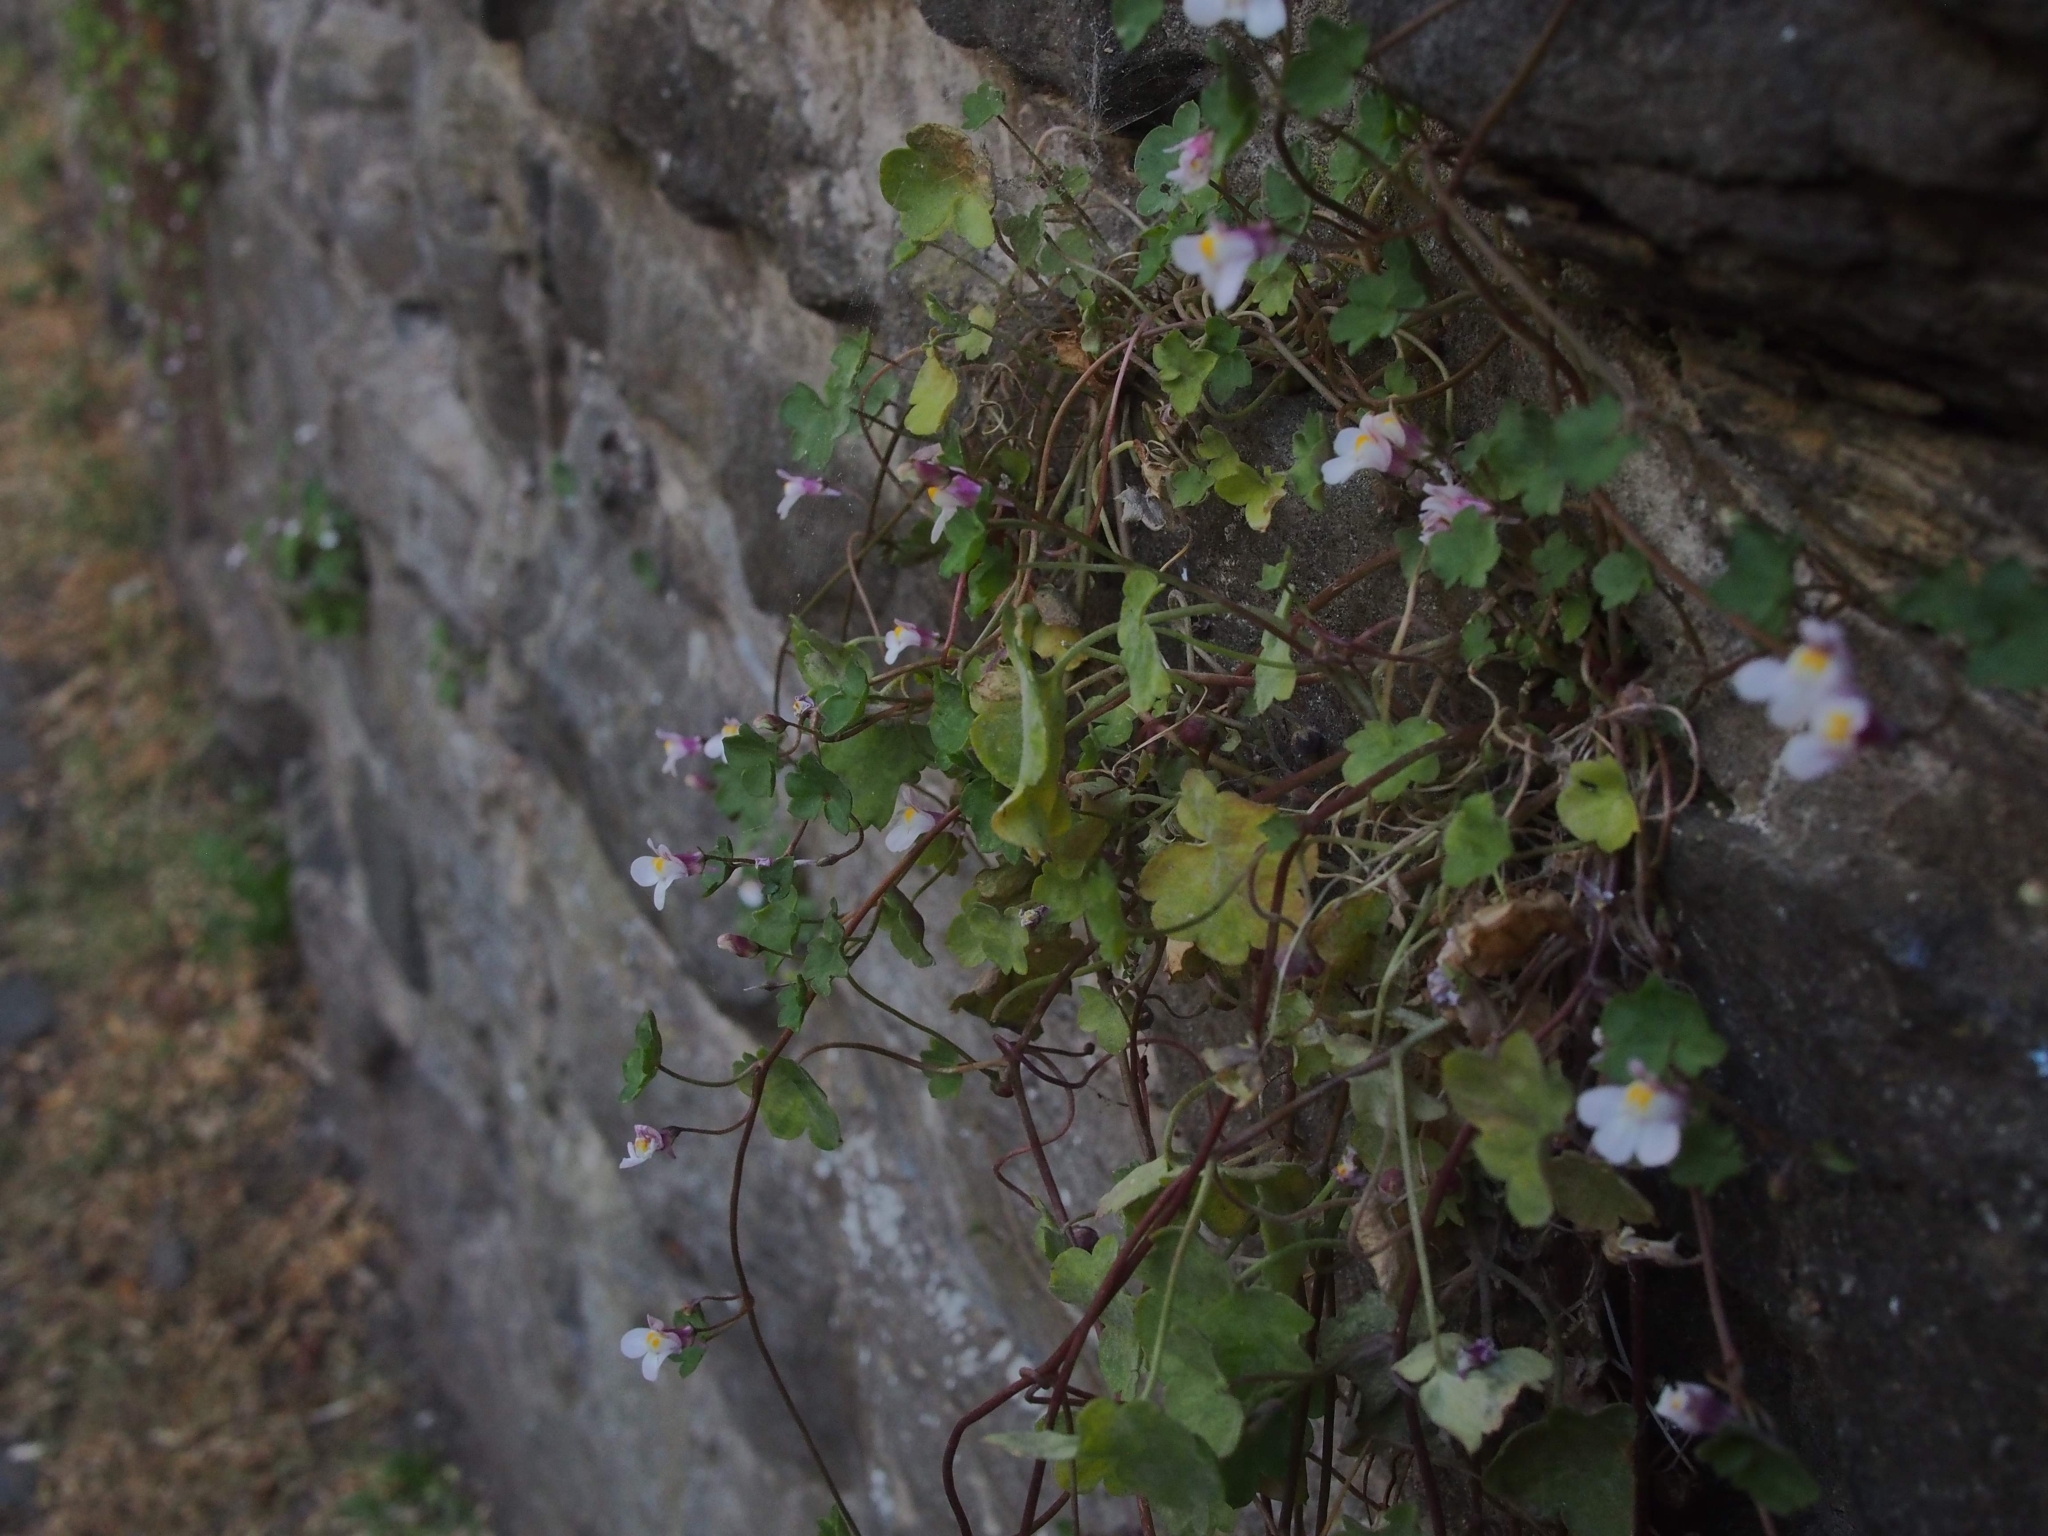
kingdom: Plantae
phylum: Tracheophyta
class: Magnoliopsida
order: Lamiales
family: Plantaginaceae
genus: Cymbalaria
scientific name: Cymbalaria muralis
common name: Ivy-leaved toadflax
